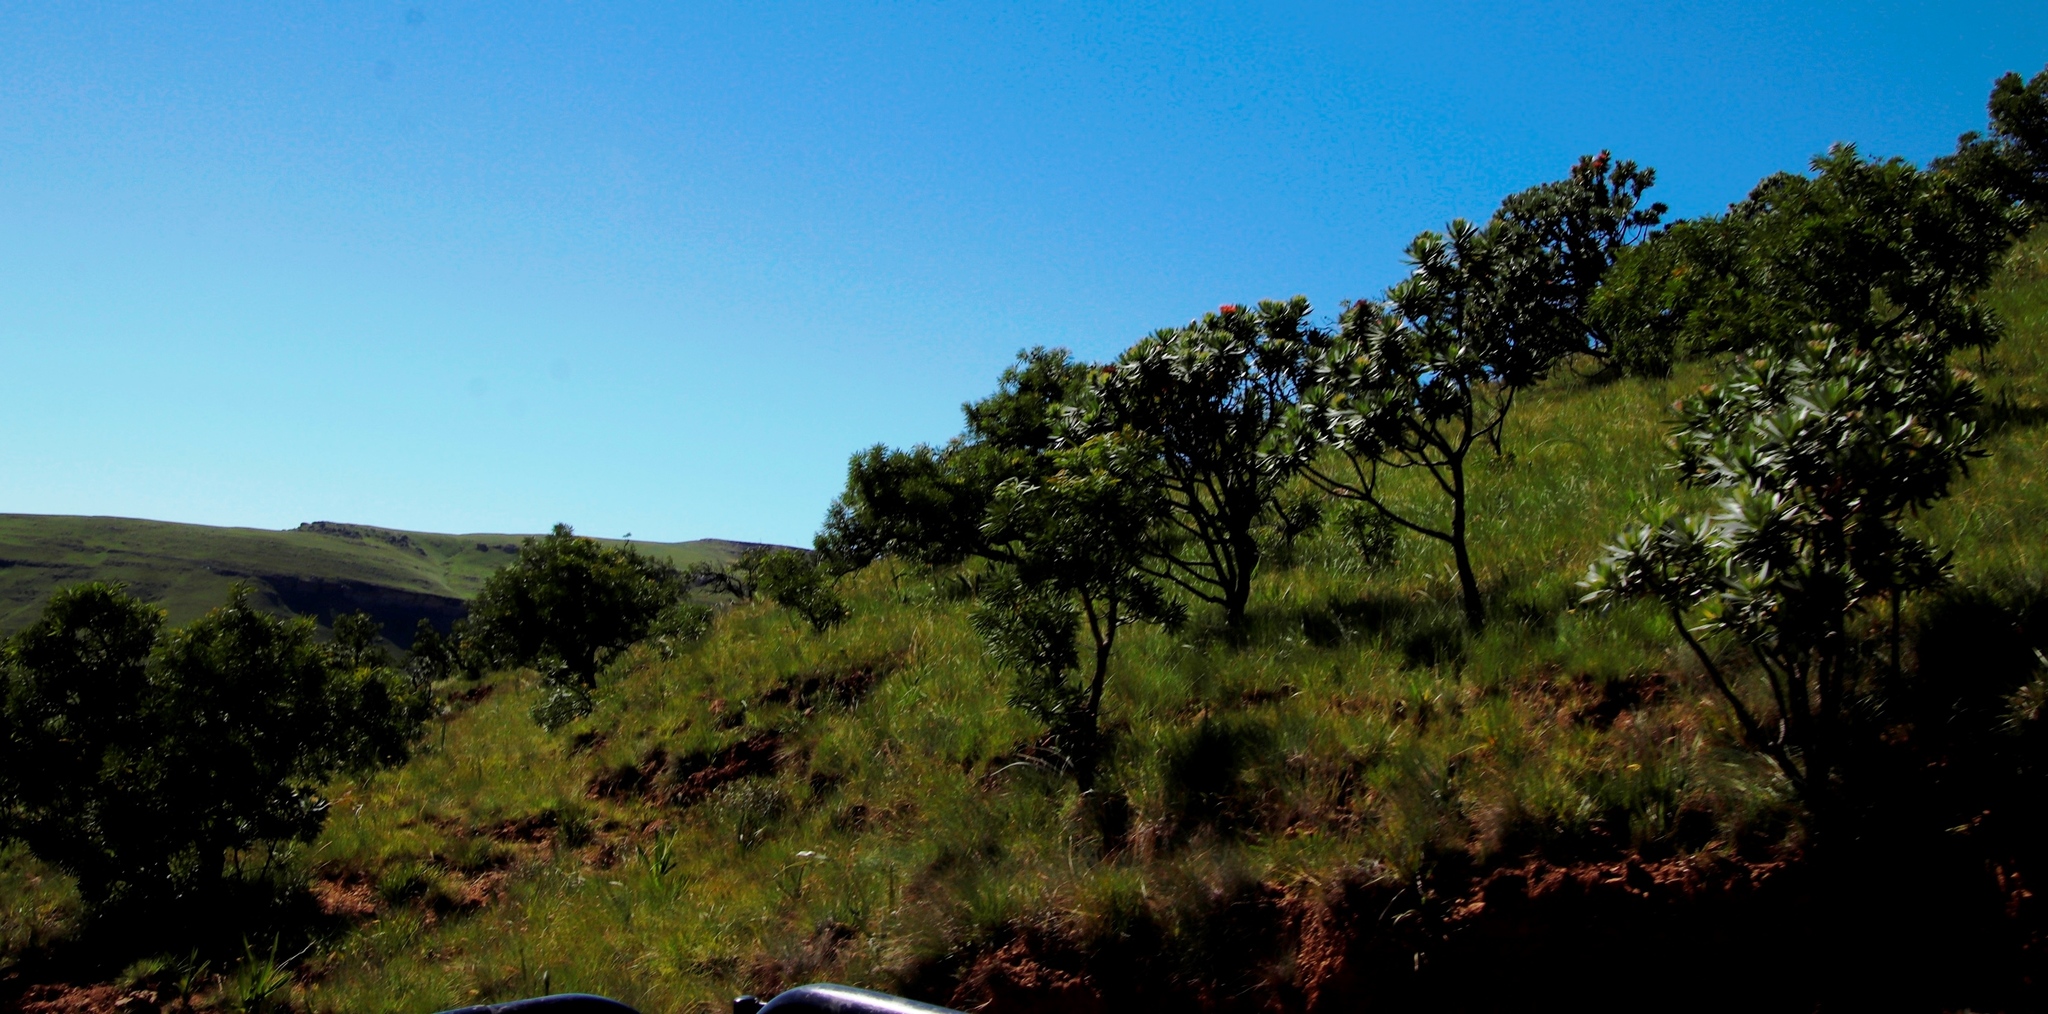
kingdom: Plantae
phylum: Tracheophyta
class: Magnoliopsida
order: Proteales
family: Proteaceae
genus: Protea
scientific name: Protea roupelliae
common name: Silver sugarbush
